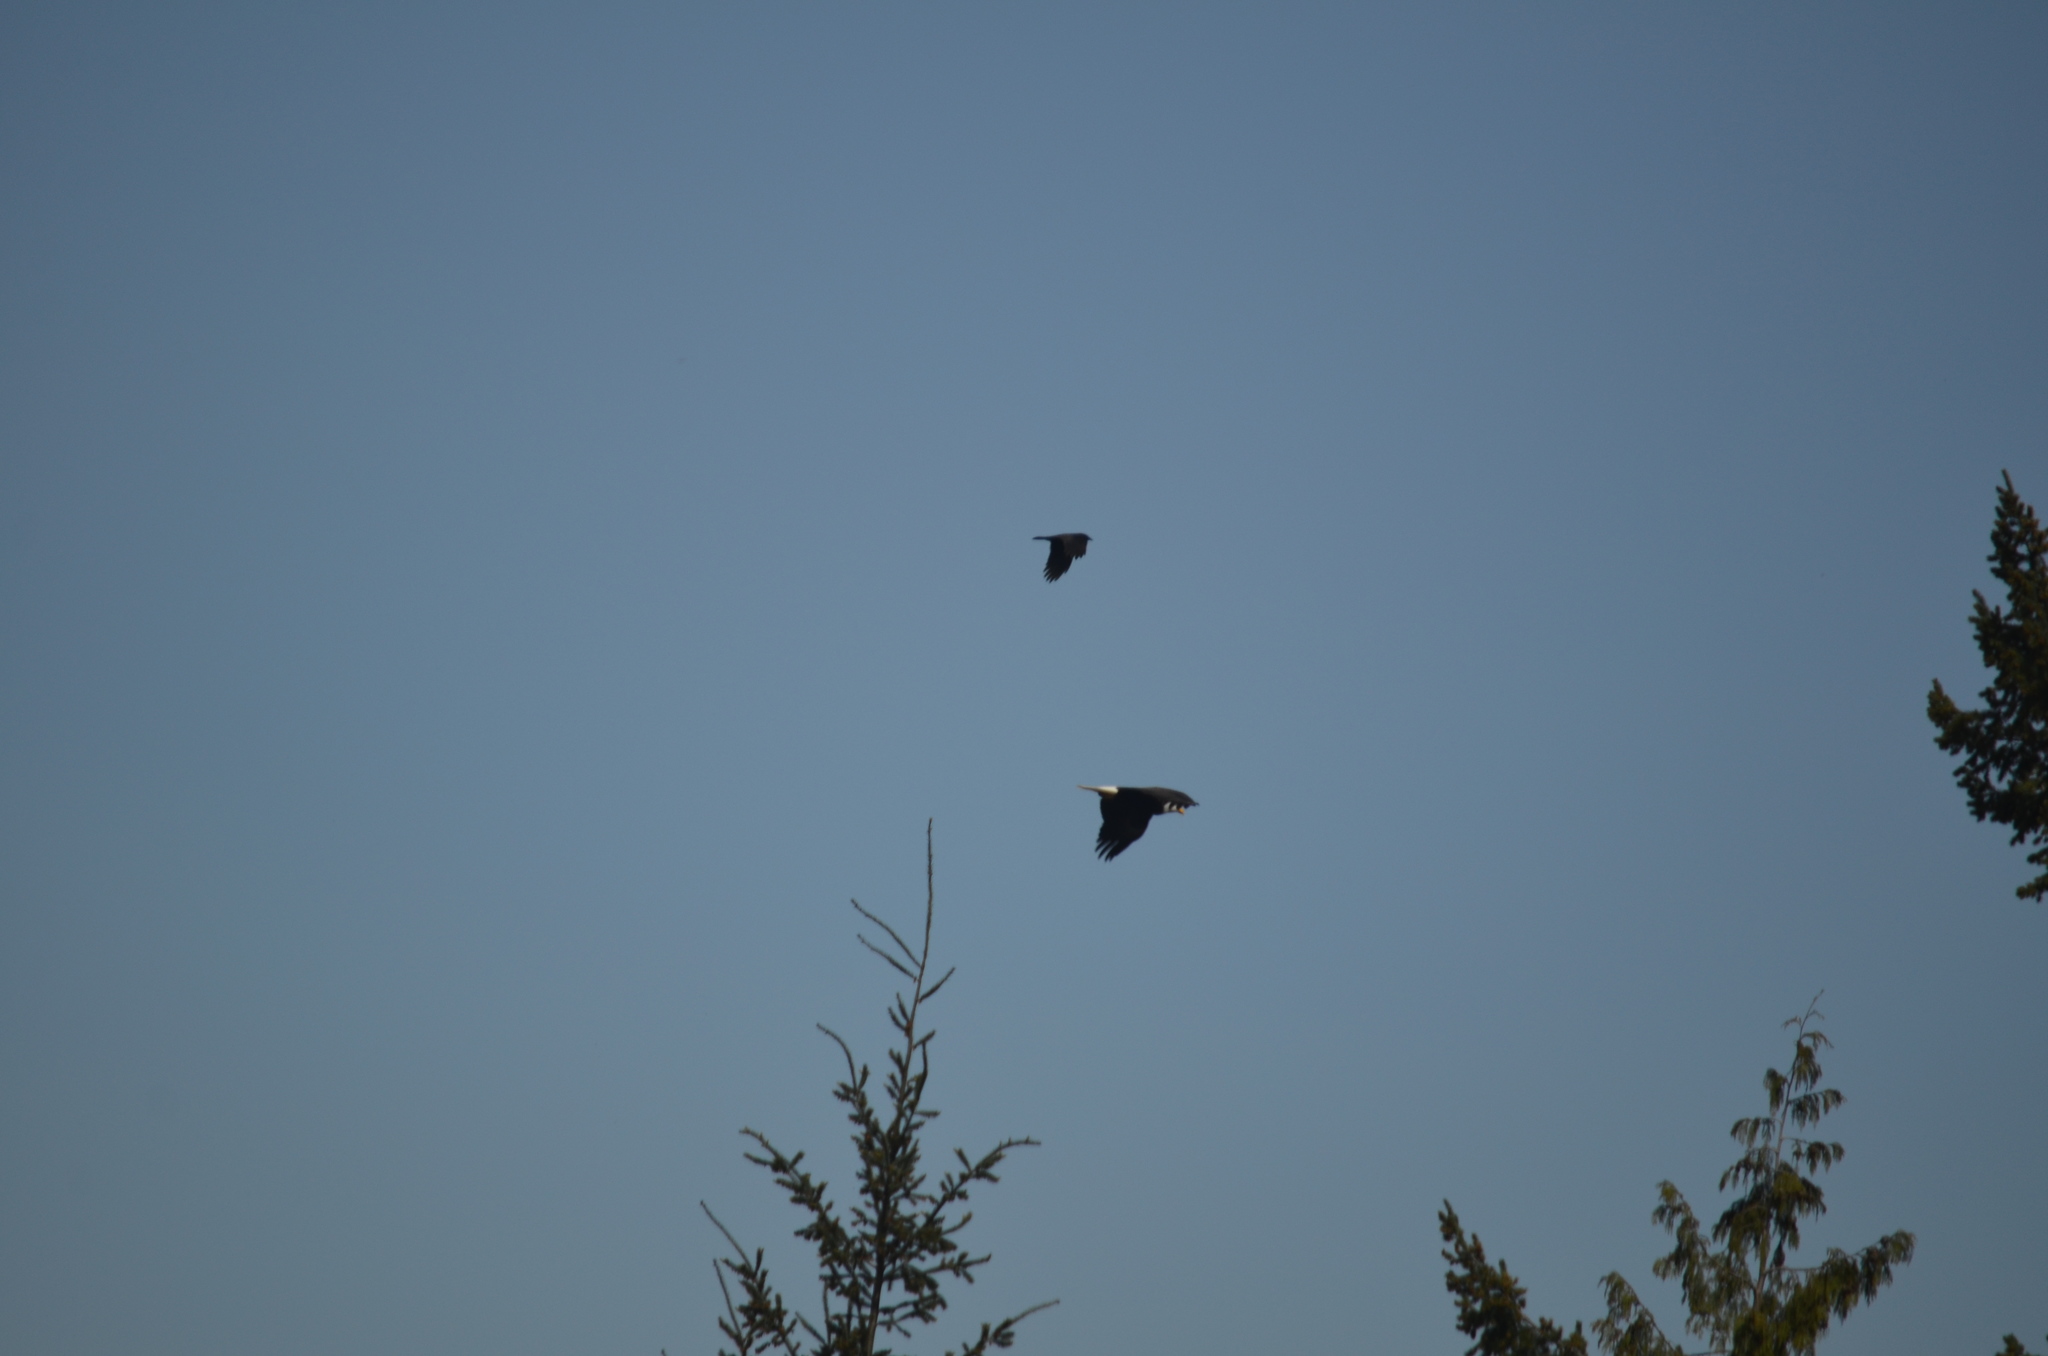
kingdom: Animalia
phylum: Chordata
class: Aves
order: Accipitriformes
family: Accipitridae
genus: Haliaeetus
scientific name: Haliaeetus leucocephalus
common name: Bald eagle
